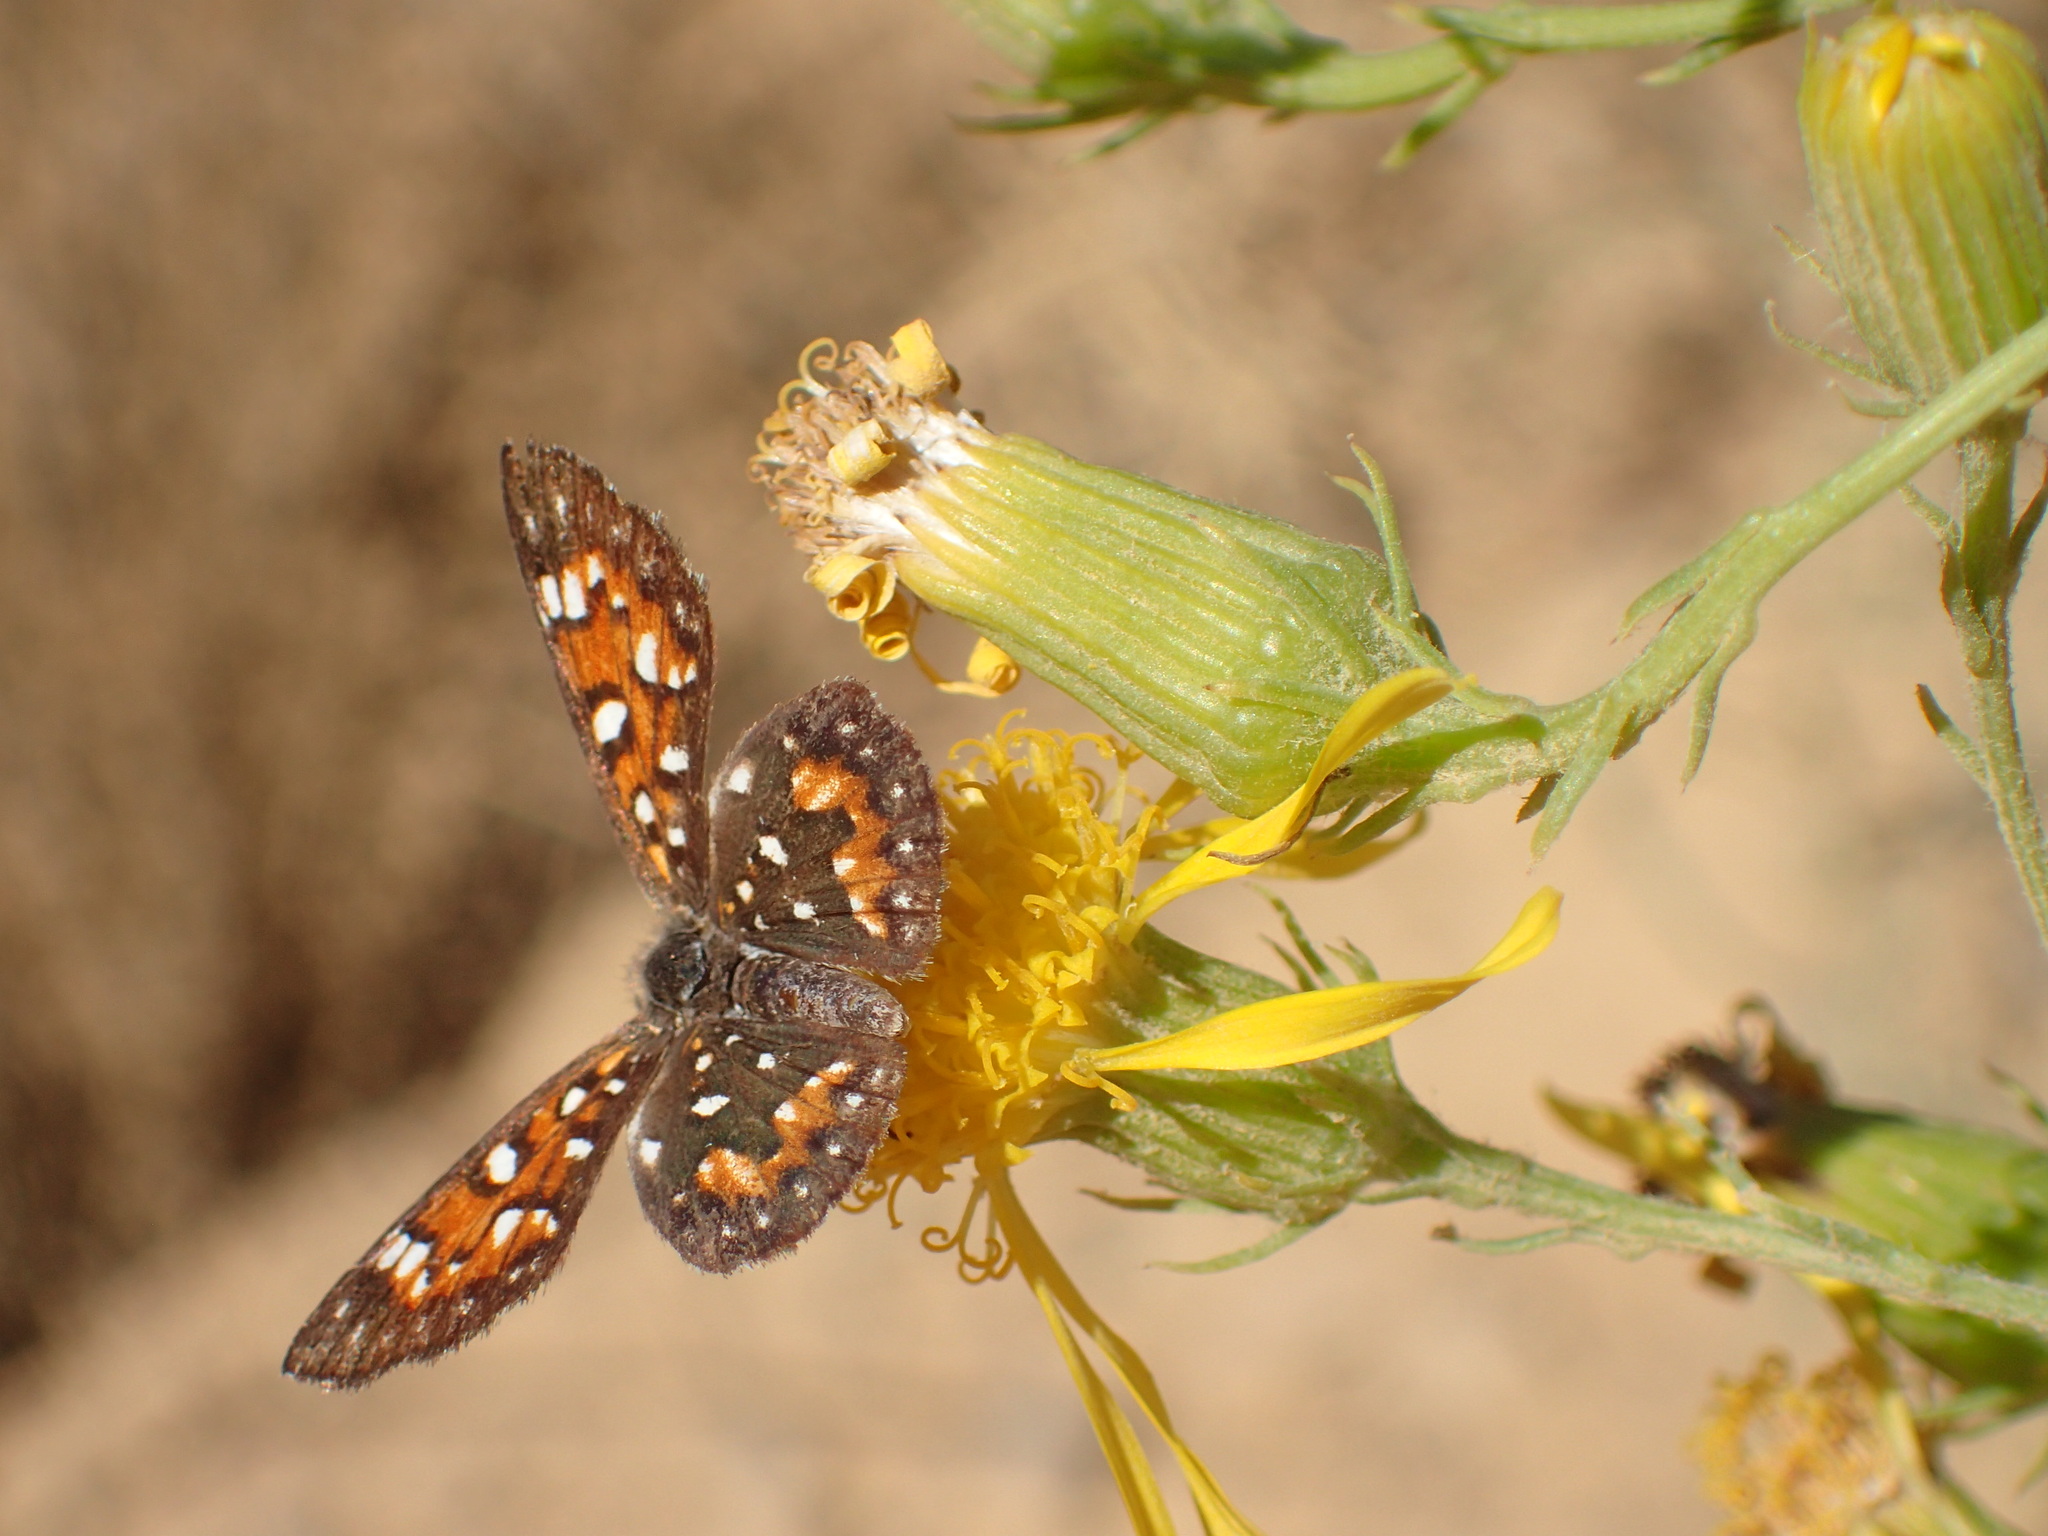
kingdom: Animalia
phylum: Arthropoda
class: Insecta
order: Lepidoptera
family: Riodinidae
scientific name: Riodinidae
